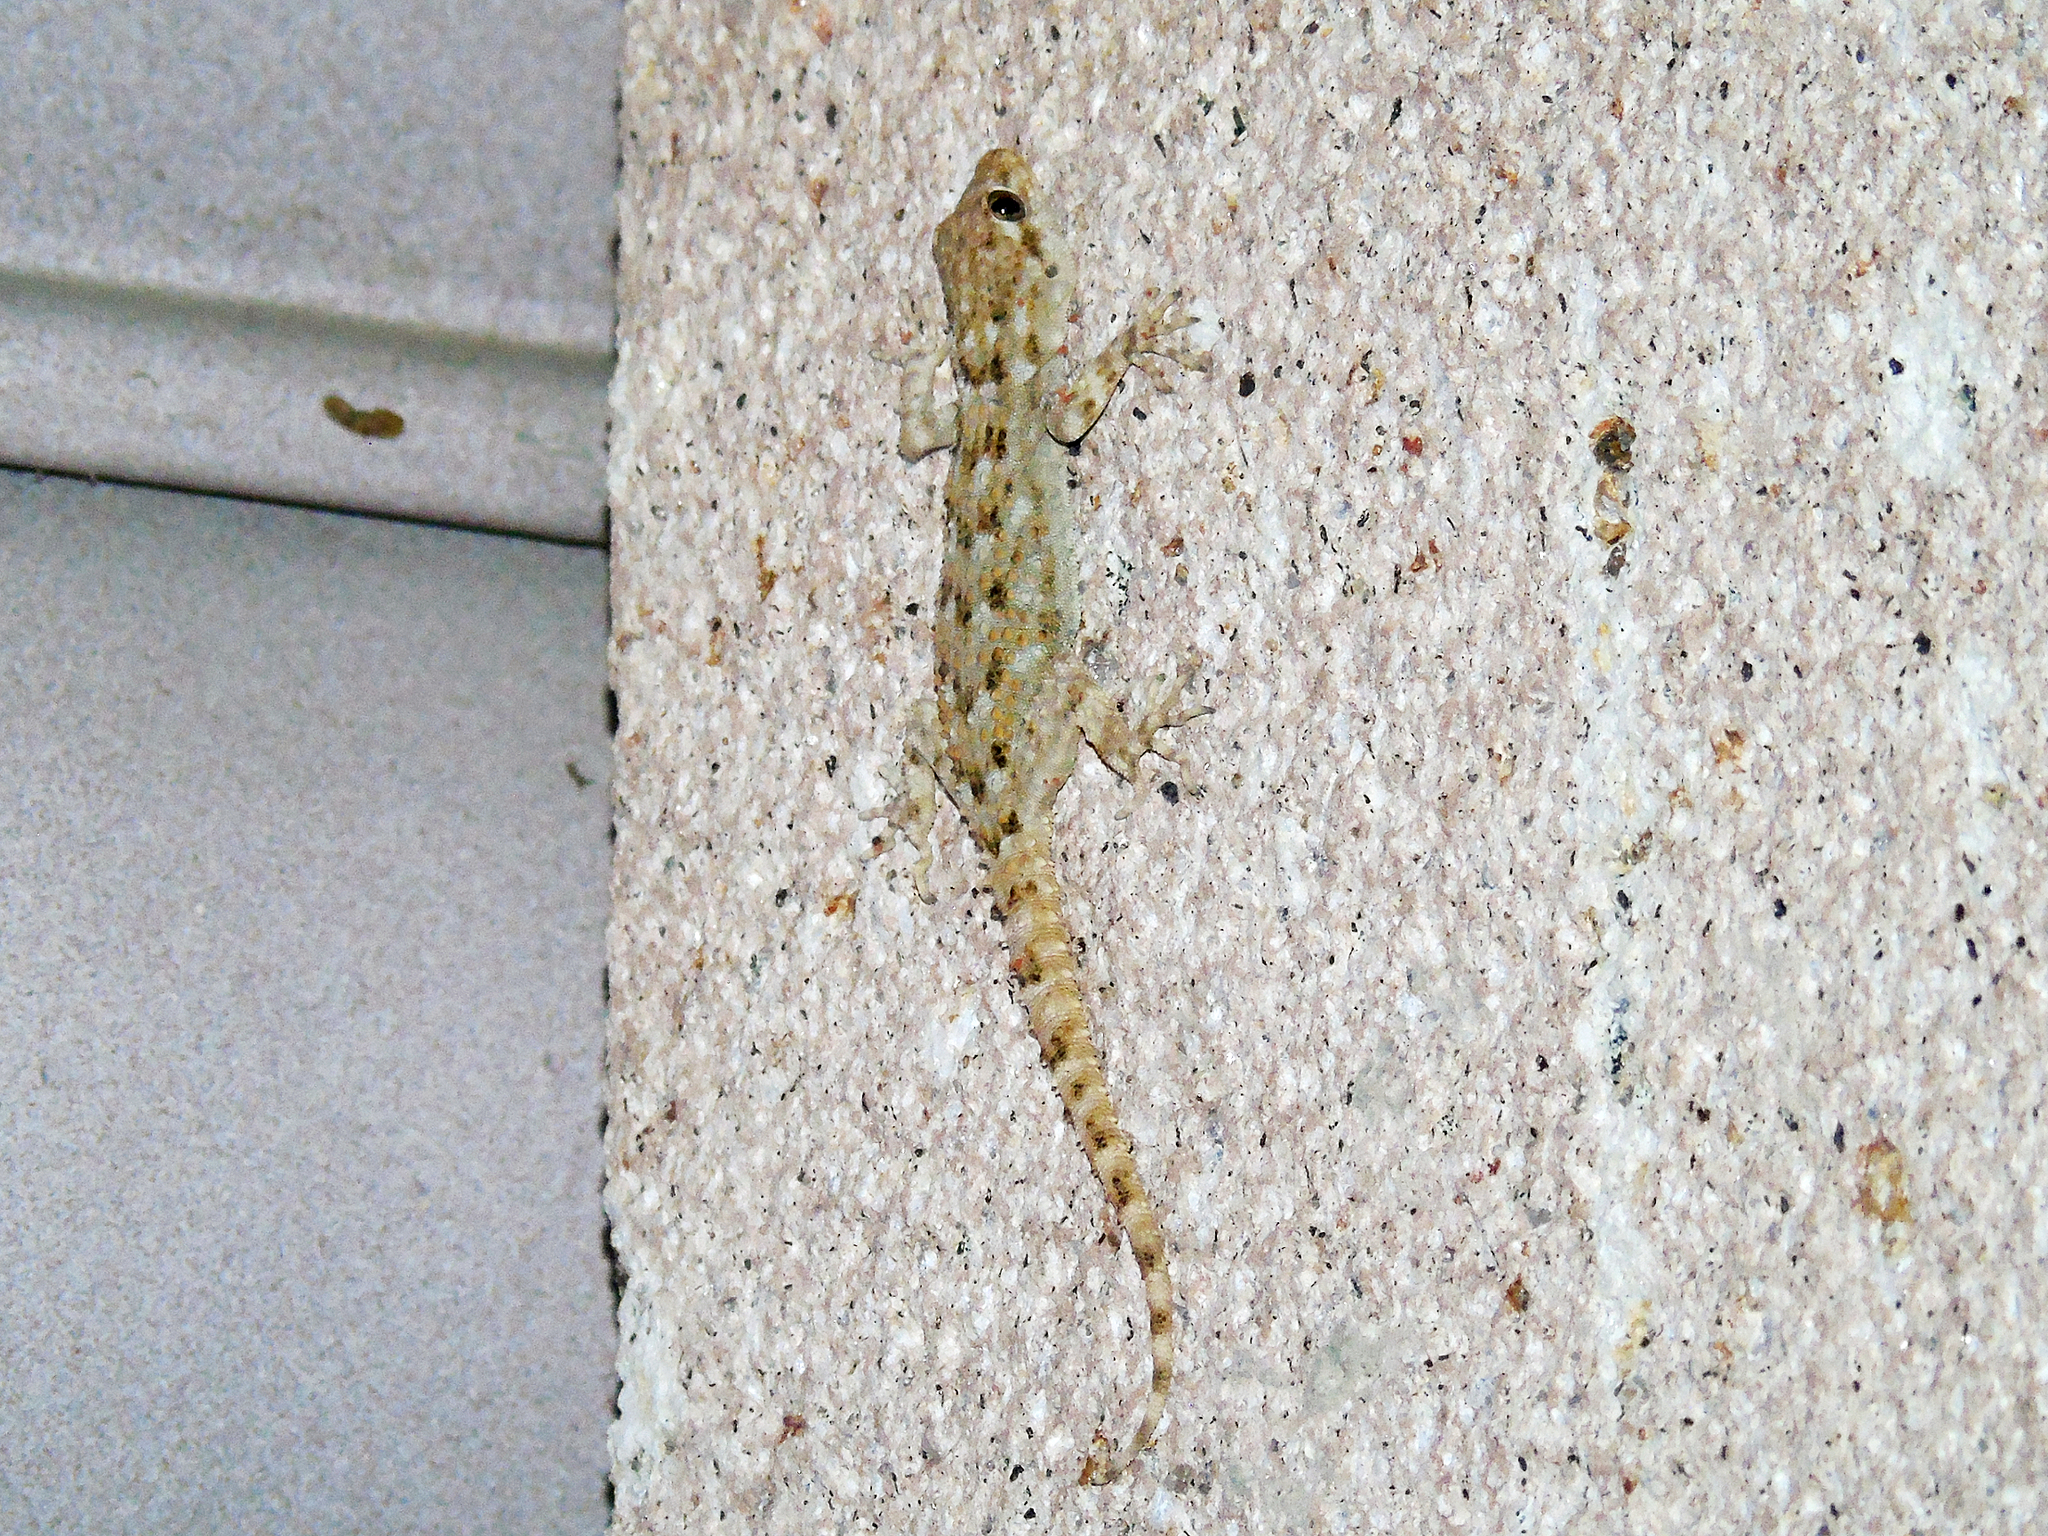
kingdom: Animalia
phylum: Chordata
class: Squamata
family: Gekkonidae
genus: Mediodactylus
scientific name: Mediodactylus kotschyi
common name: Kotschy's gecko
